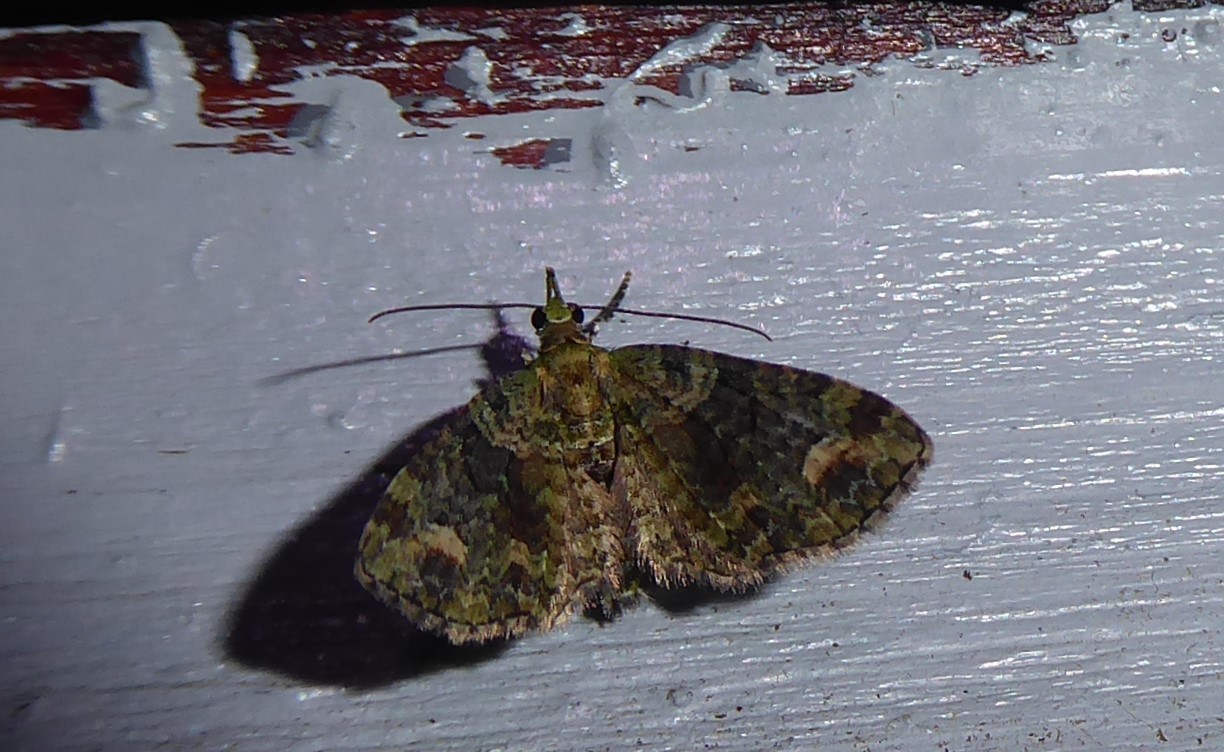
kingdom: Animalia
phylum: Arthropoda
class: Insecta
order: Lepidoptera
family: Geometridae
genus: Pasiphilodes
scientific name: Pasiphilodes testulata
